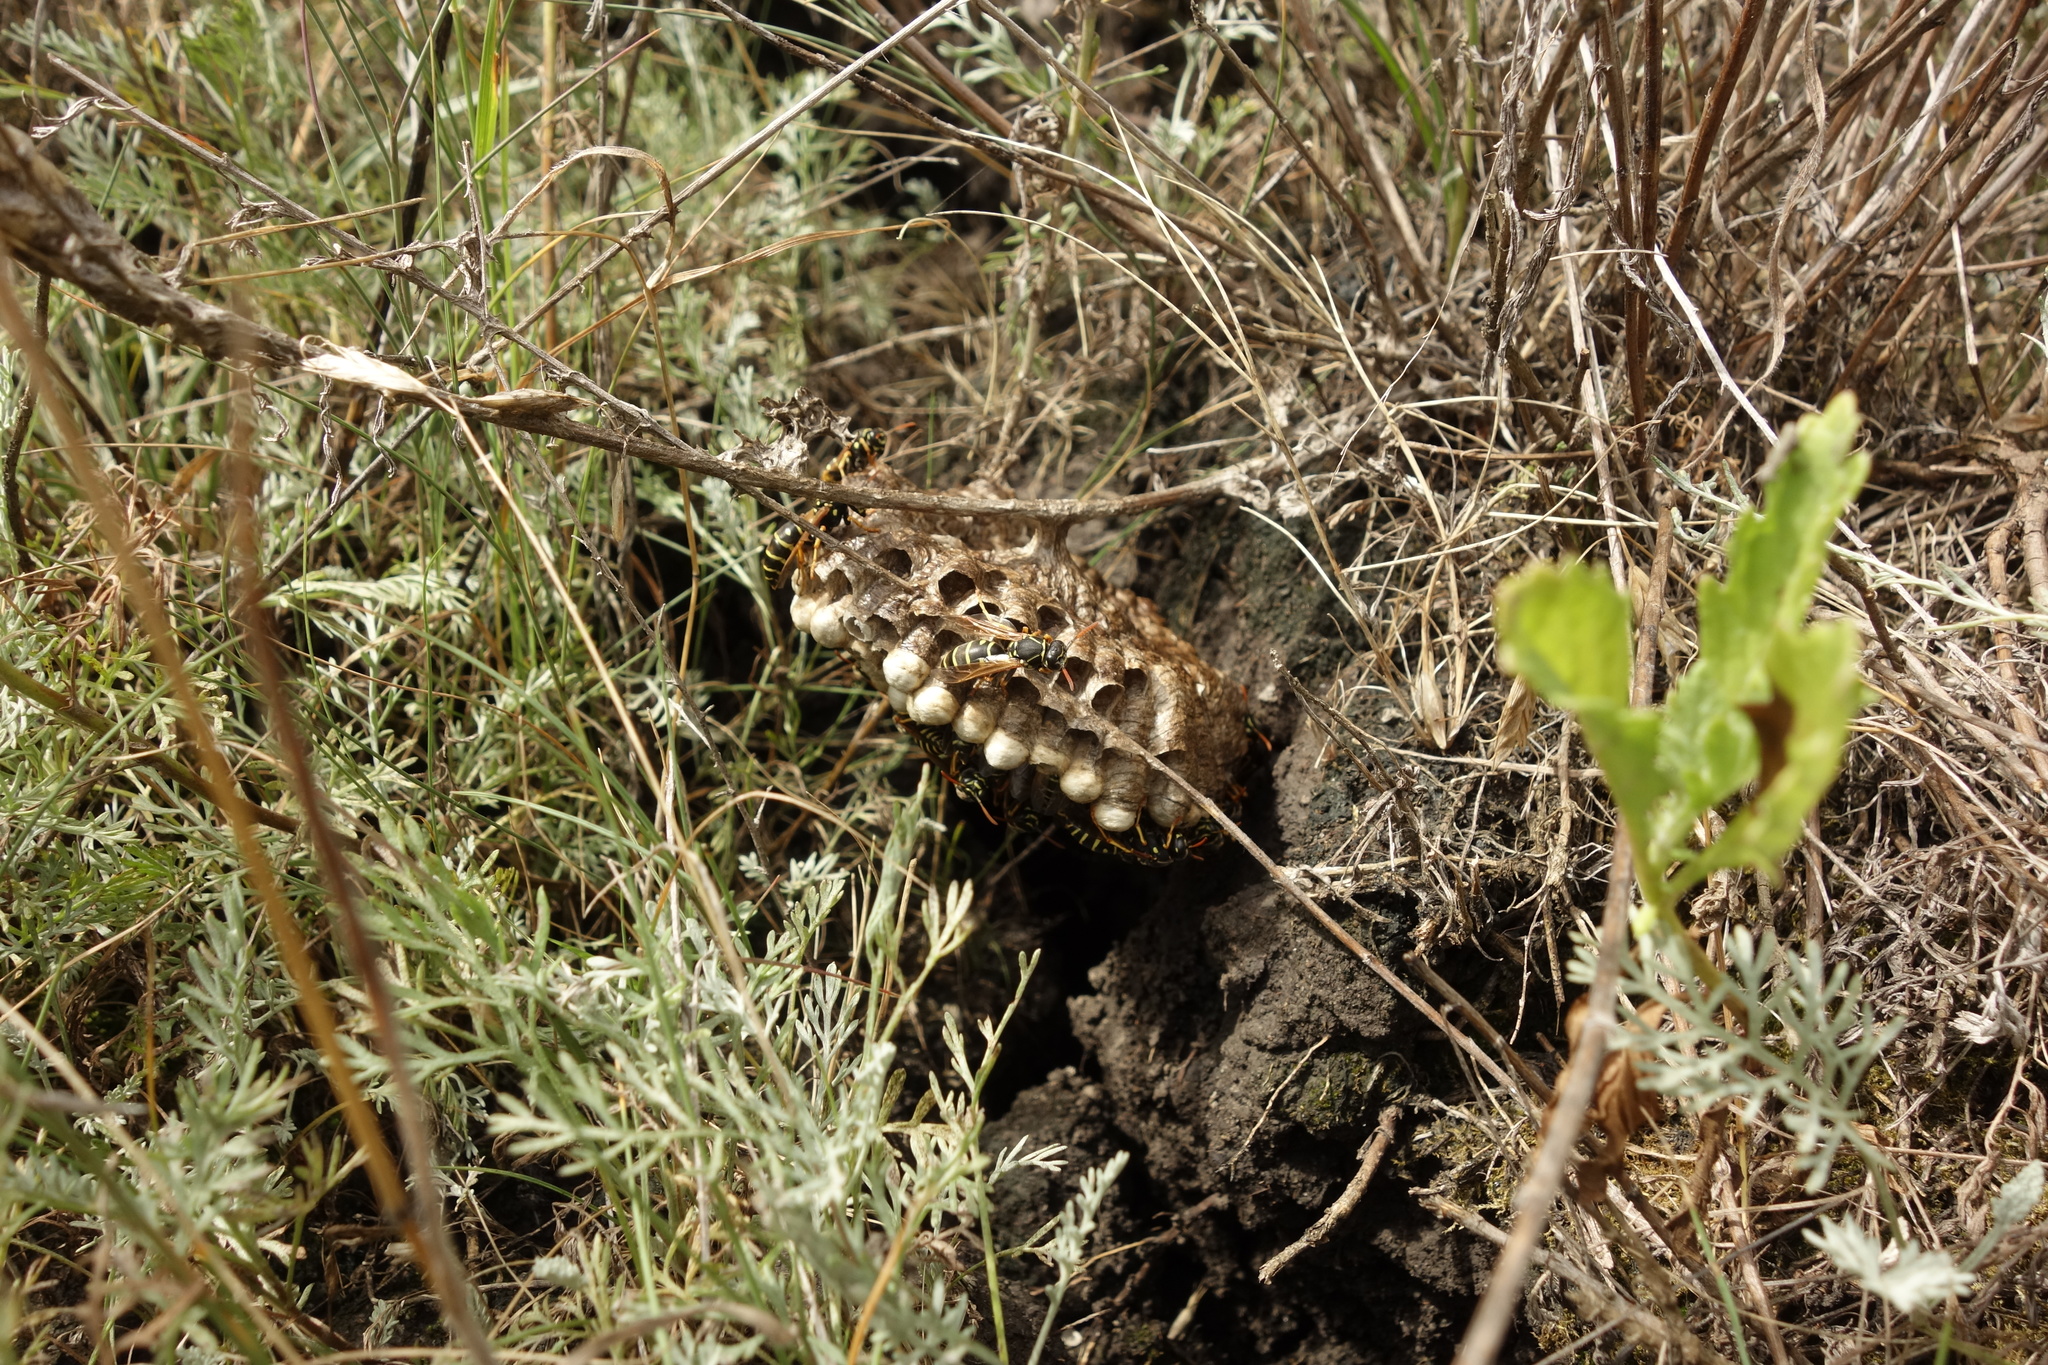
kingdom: Animalia
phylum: Arthropoda
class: Insecta
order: Hymenoptera
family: Eumenidae
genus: Polistes
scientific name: Polistes nimpha
